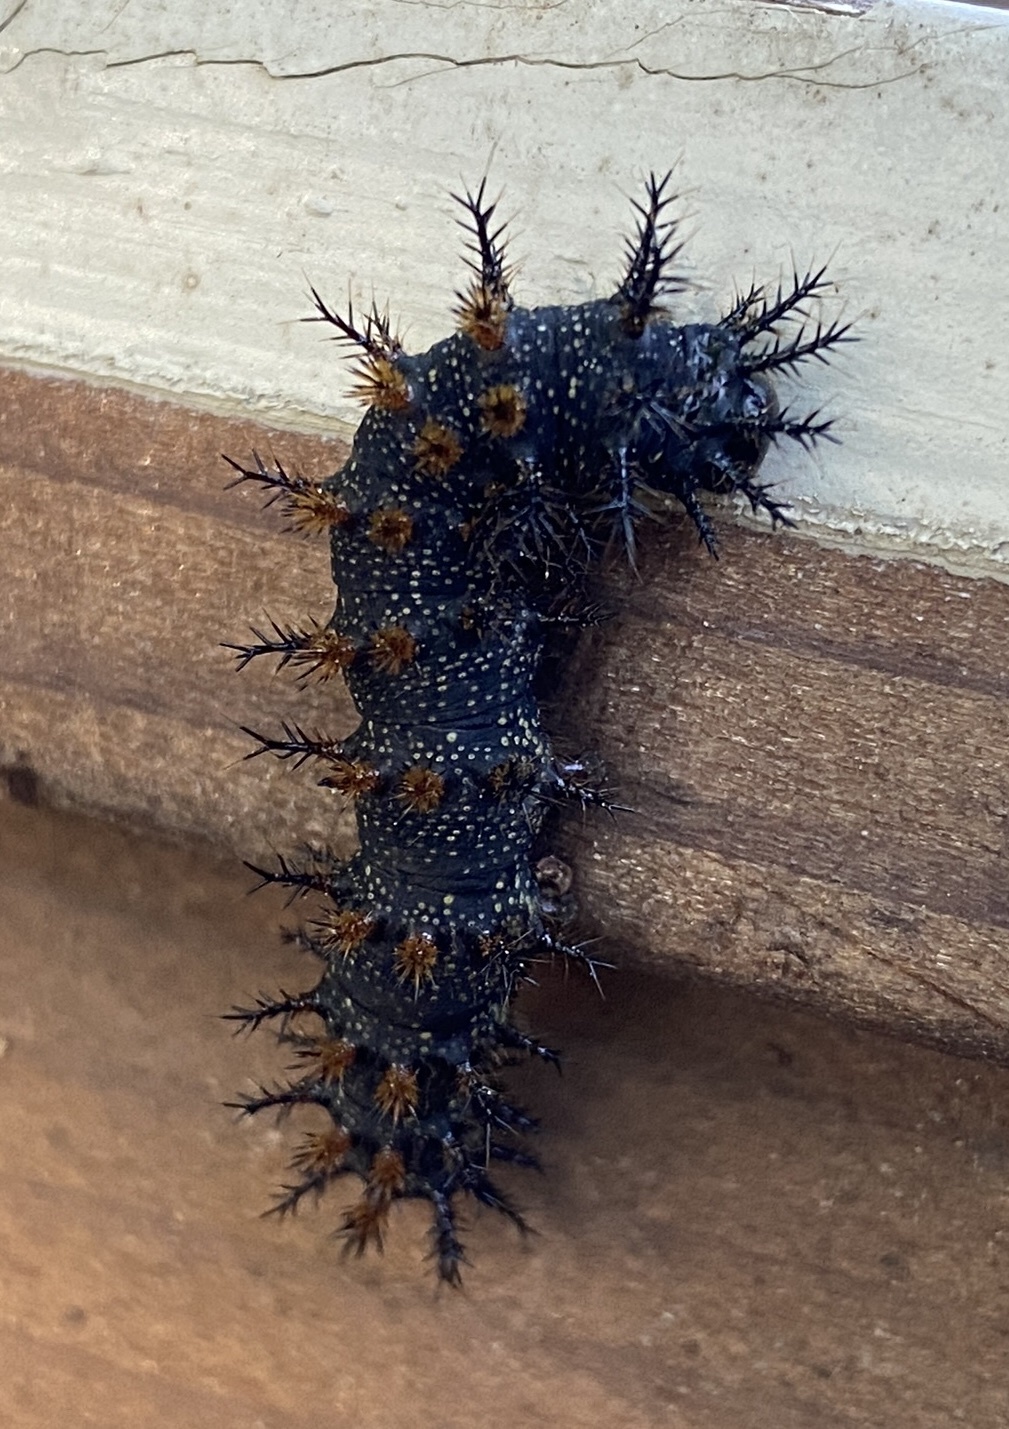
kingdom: Animalia
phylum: Arthropoda
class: Insecta
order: Lepidoptera
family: Saturniidae
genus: Hemileuca
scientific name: Hemileuca maia
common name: Eastern buckmoth
